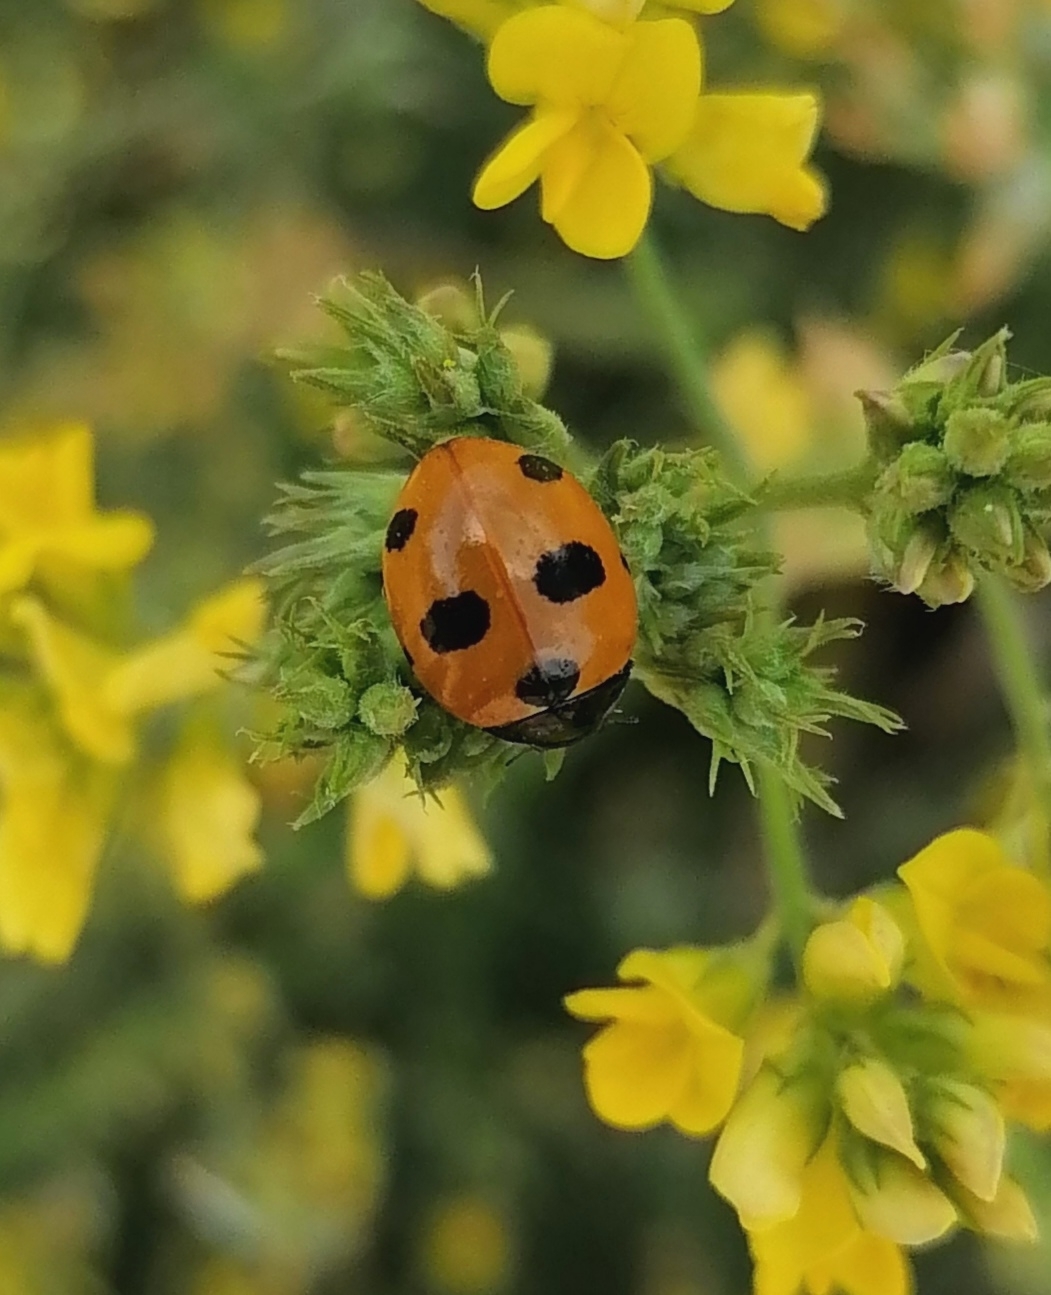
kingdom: Animalia
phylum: Arthropoda
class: Insecta
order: Coleoptera
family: Coccinellidae
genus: Coccinella
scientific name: Coccinella magnifica
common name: Scarce 7-spot ladybird
